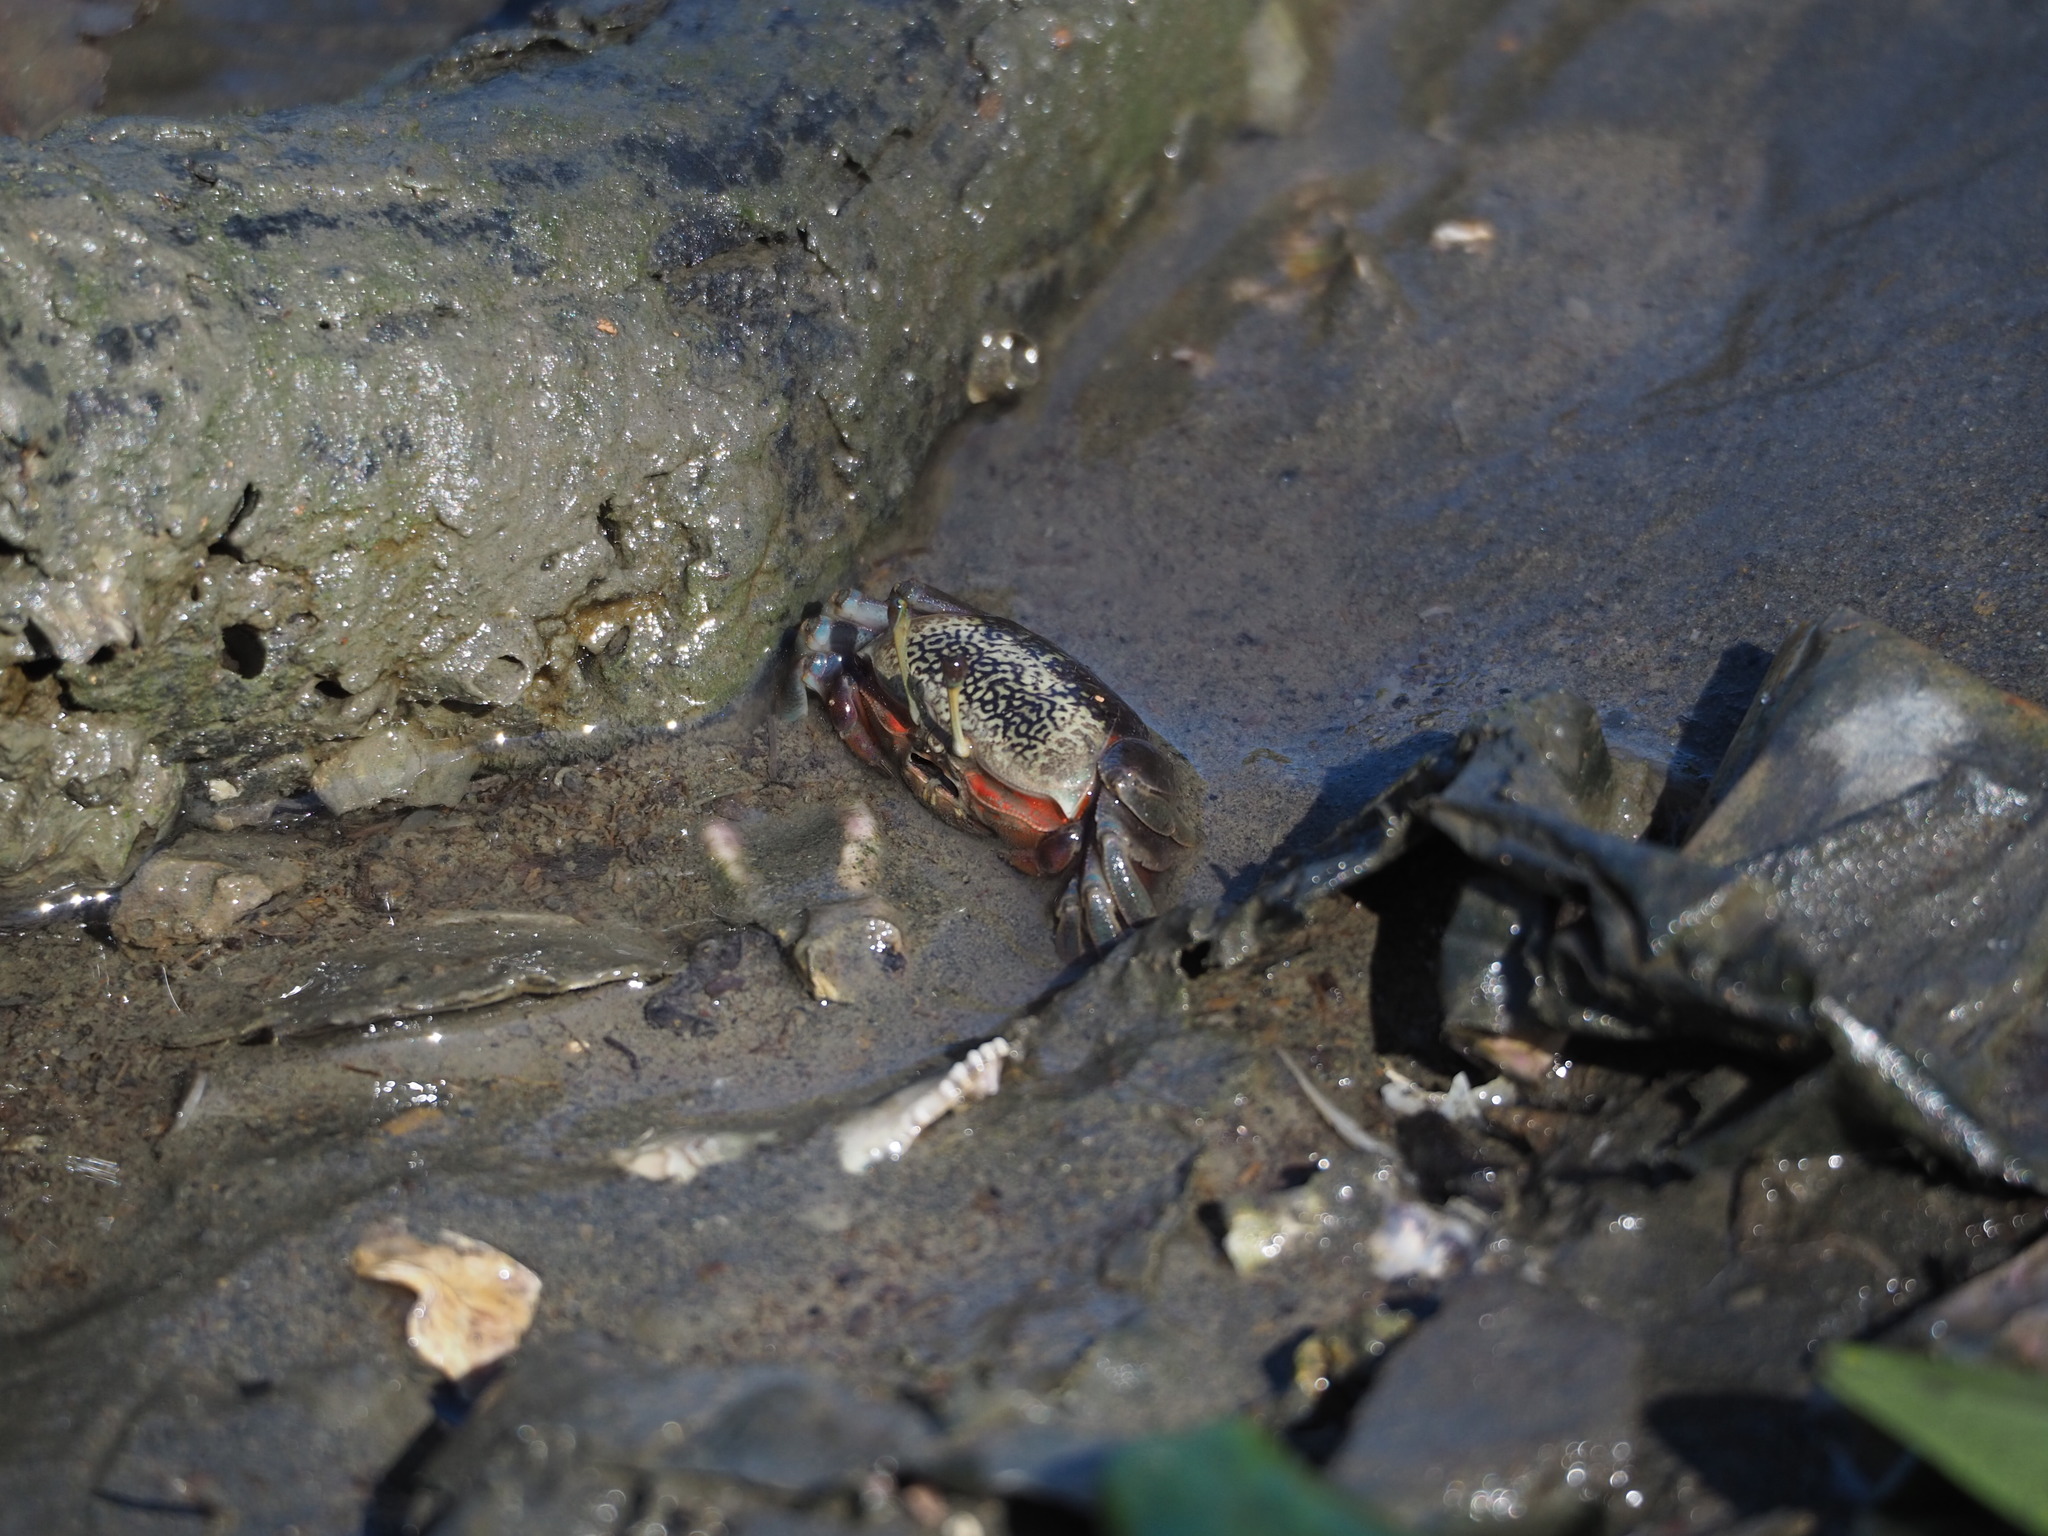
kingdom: Animalia
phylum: Arthropoda
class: Malacostraca
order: Decapoda
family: Ocypodidae
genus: Tubuca
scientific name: Tubuca arcuata
